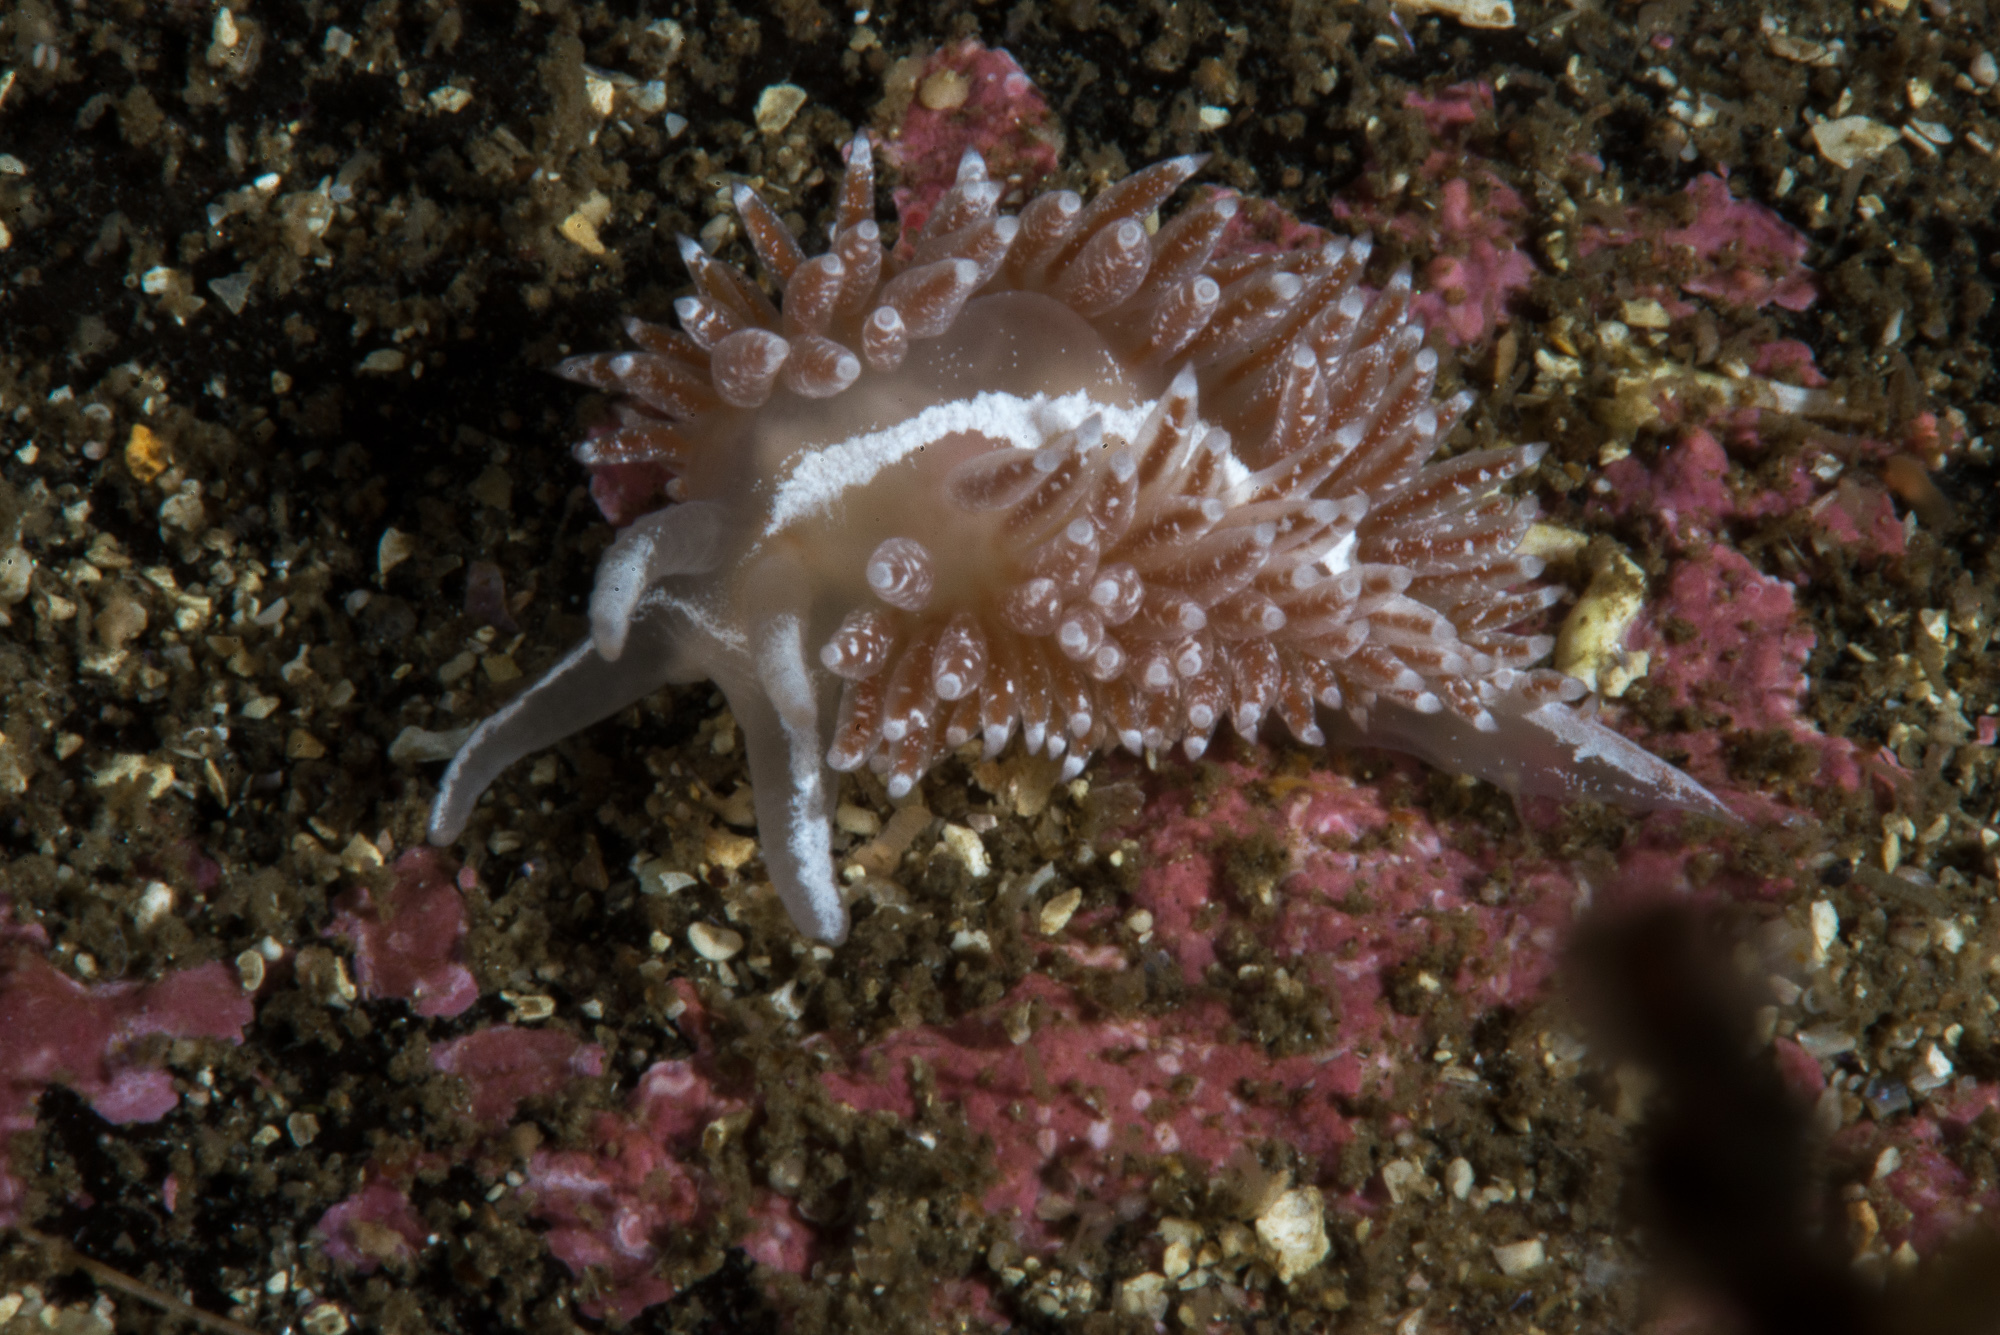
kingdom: Animalia
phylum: Mollusca
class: Gastropoda
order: Nudibranchia
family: Coryphellidae
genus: Coryphella
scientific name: Coryphella orjani
